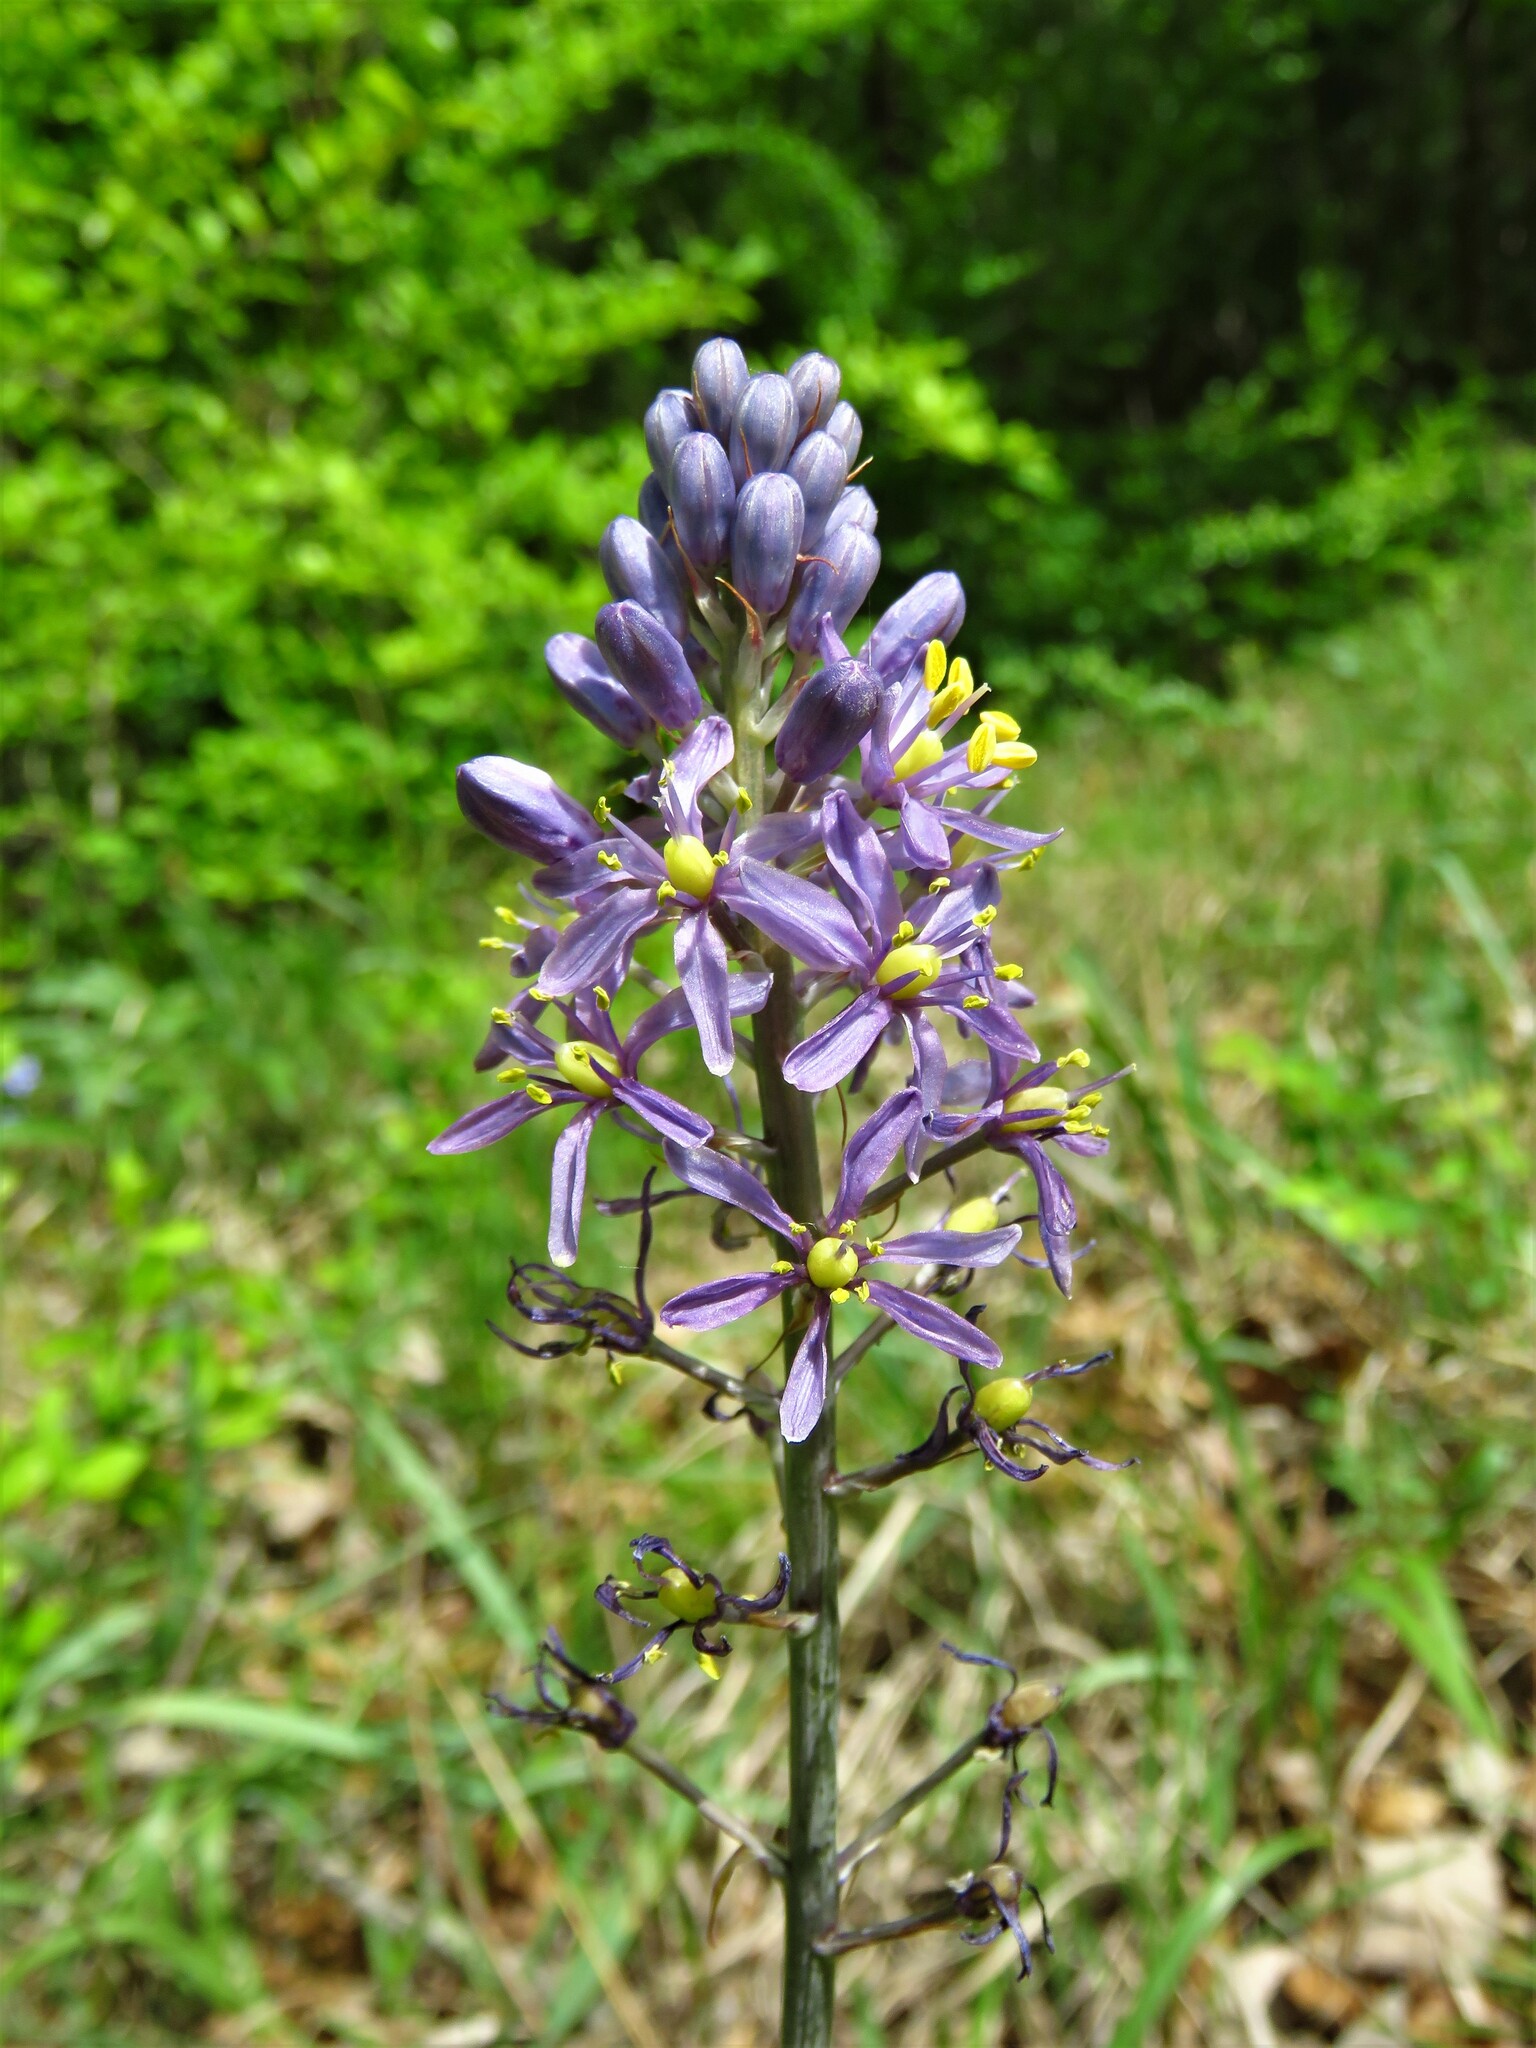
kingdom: Plantae
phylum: Tracheophyta
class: Liliopsida
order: Asparagales
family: Asparagaceae
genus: Camassia
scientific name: Camassia scilloides
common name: Wild hyacinth
